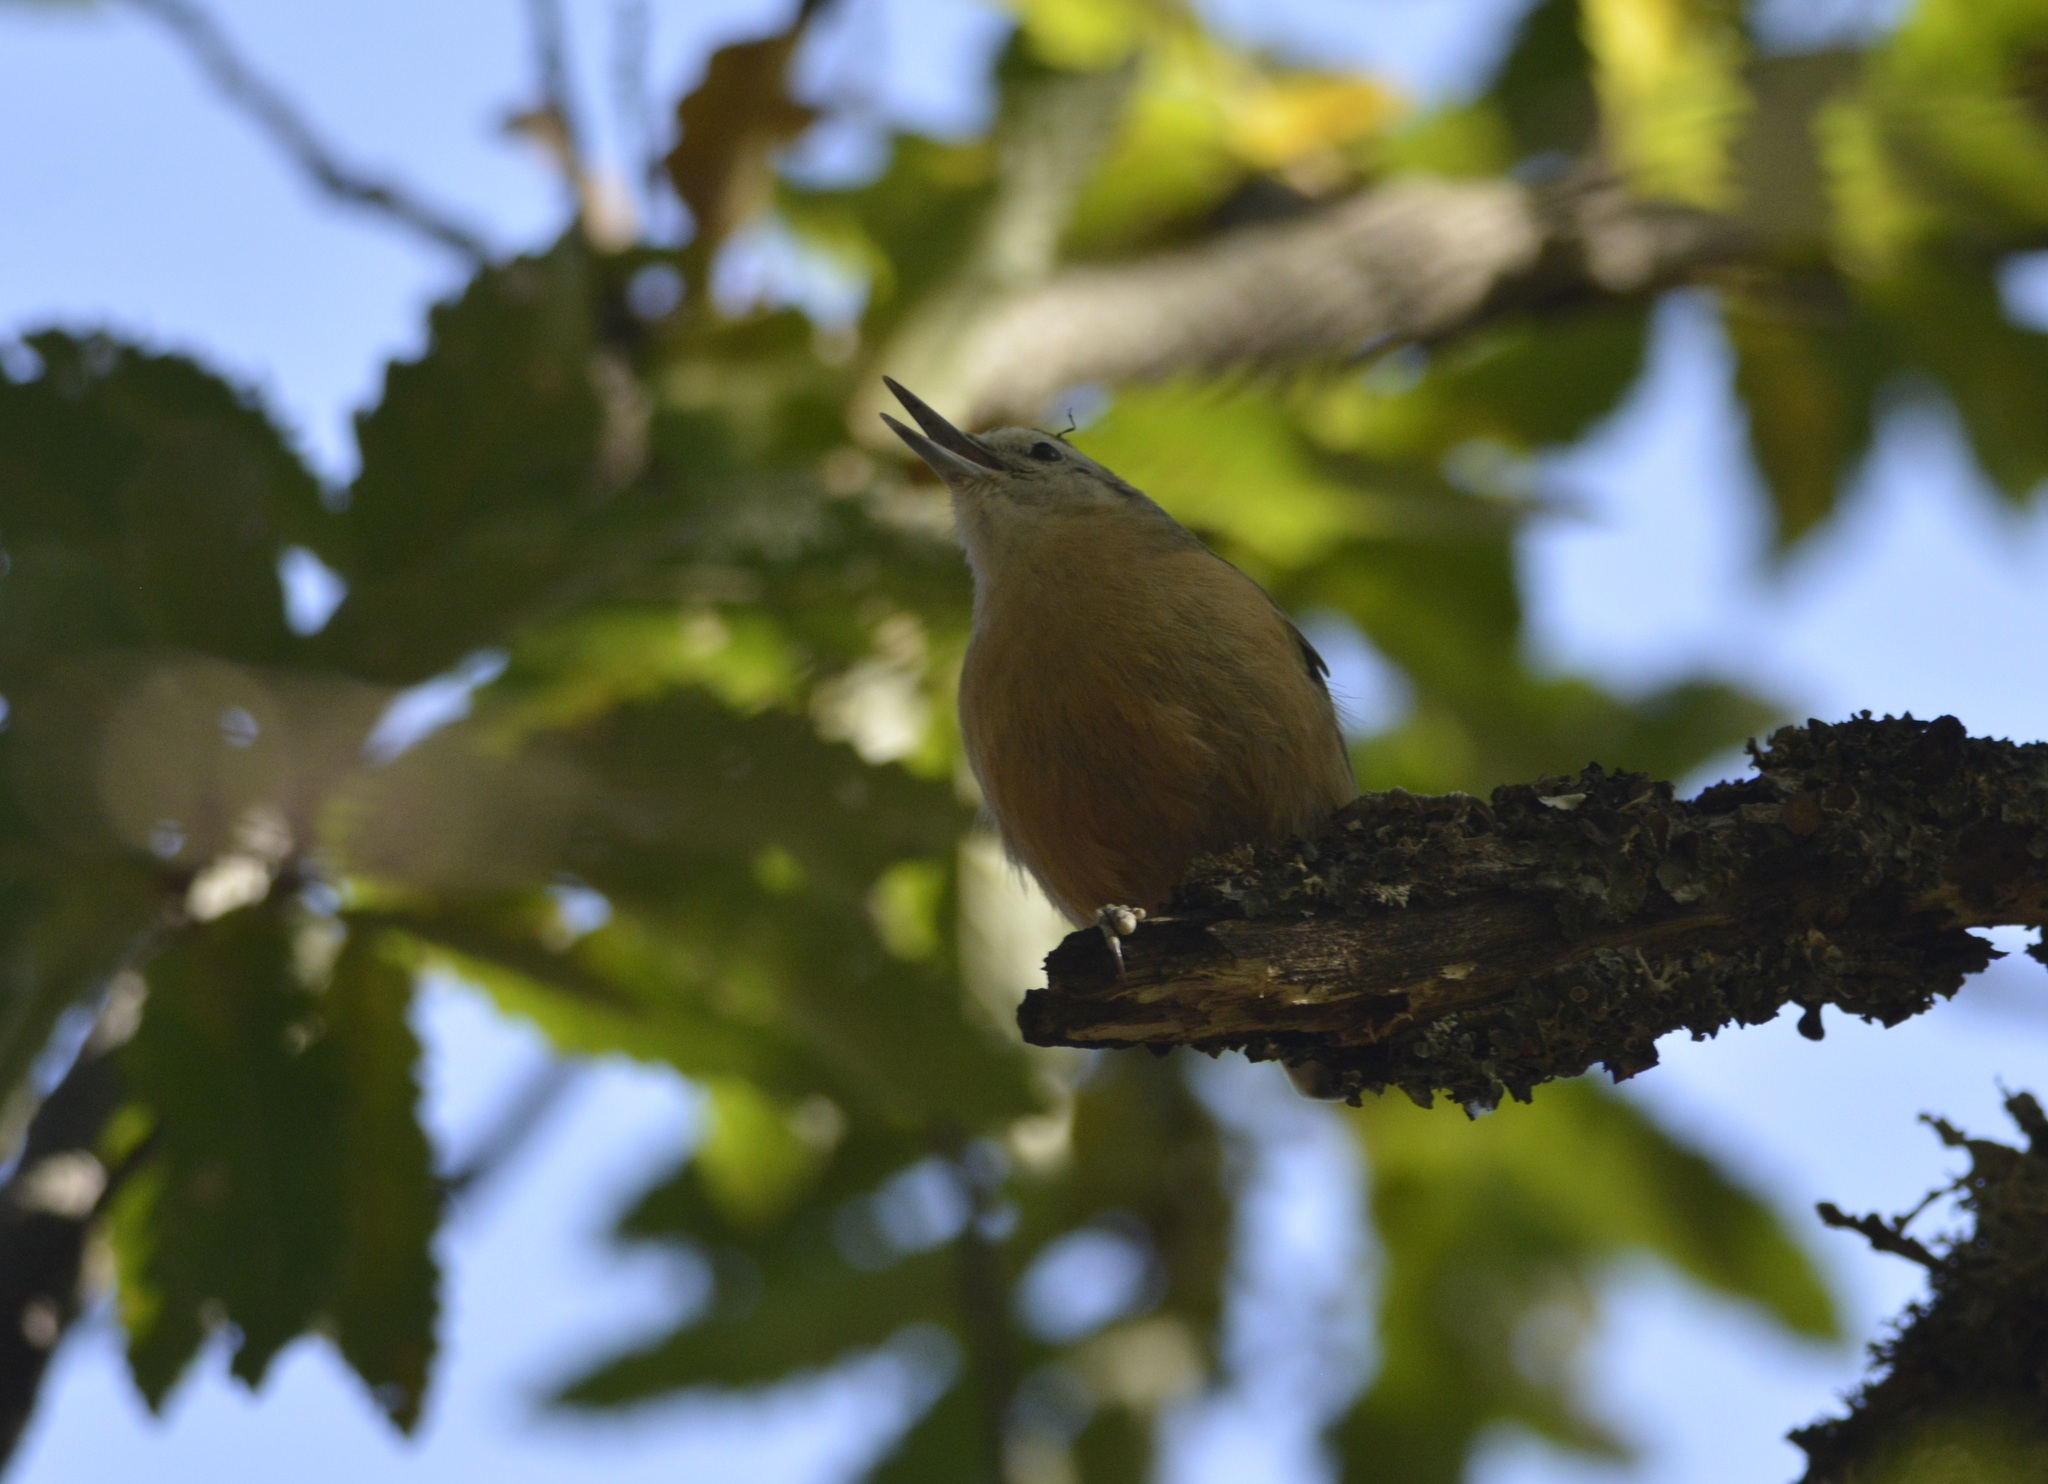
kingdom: Animalia
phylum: Chordata
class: Aves
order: Passeriformes
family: Sittidae
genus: Sitta
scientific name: Sitta ledanti
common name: Algerian nuthatch
